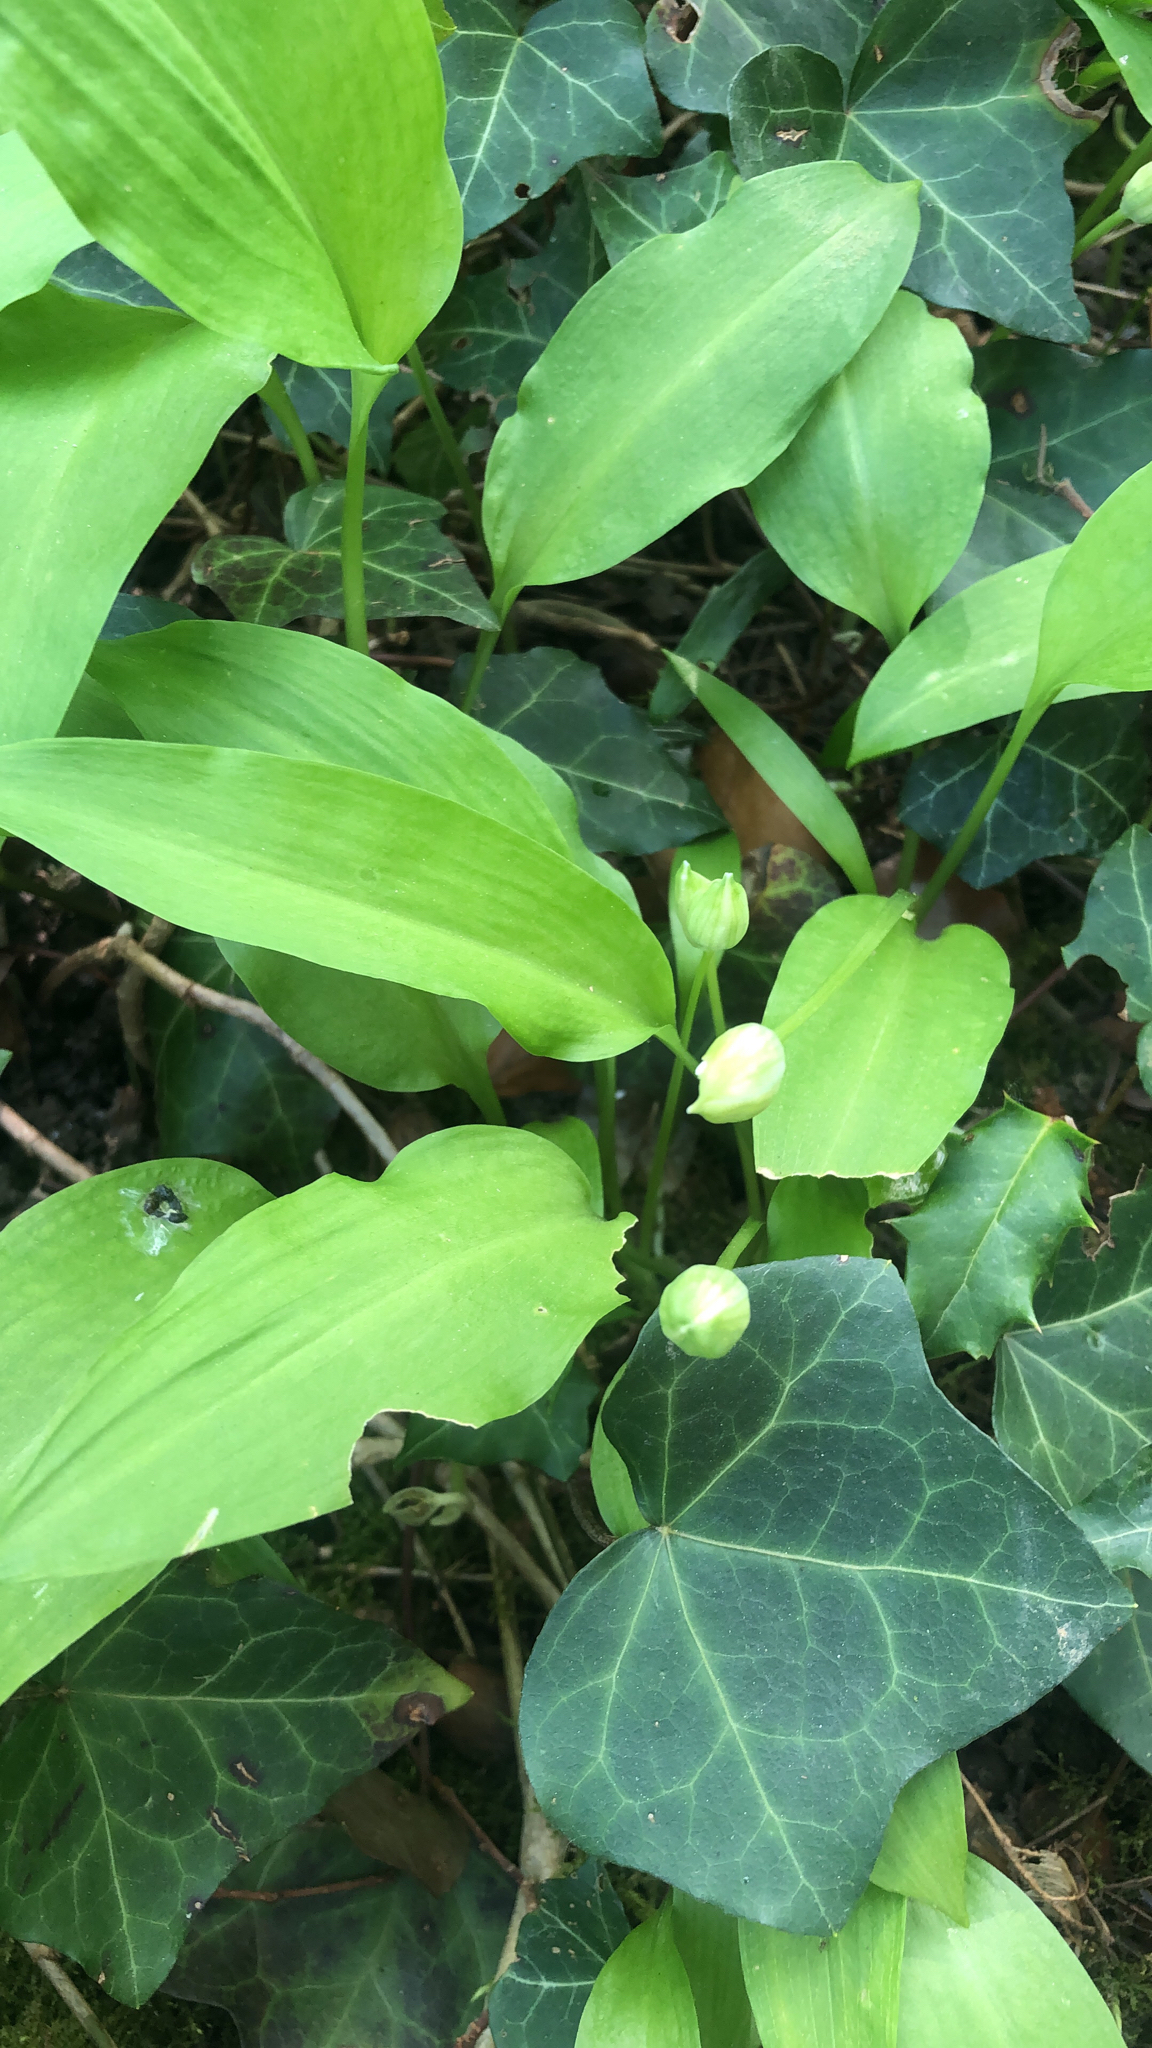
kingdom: Plantae
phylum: Tracheophyta
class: Liliopsida
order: Asparagales
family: Amaryllidaceae
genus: Allium
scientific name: Allium ursinum
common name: Ramsons
